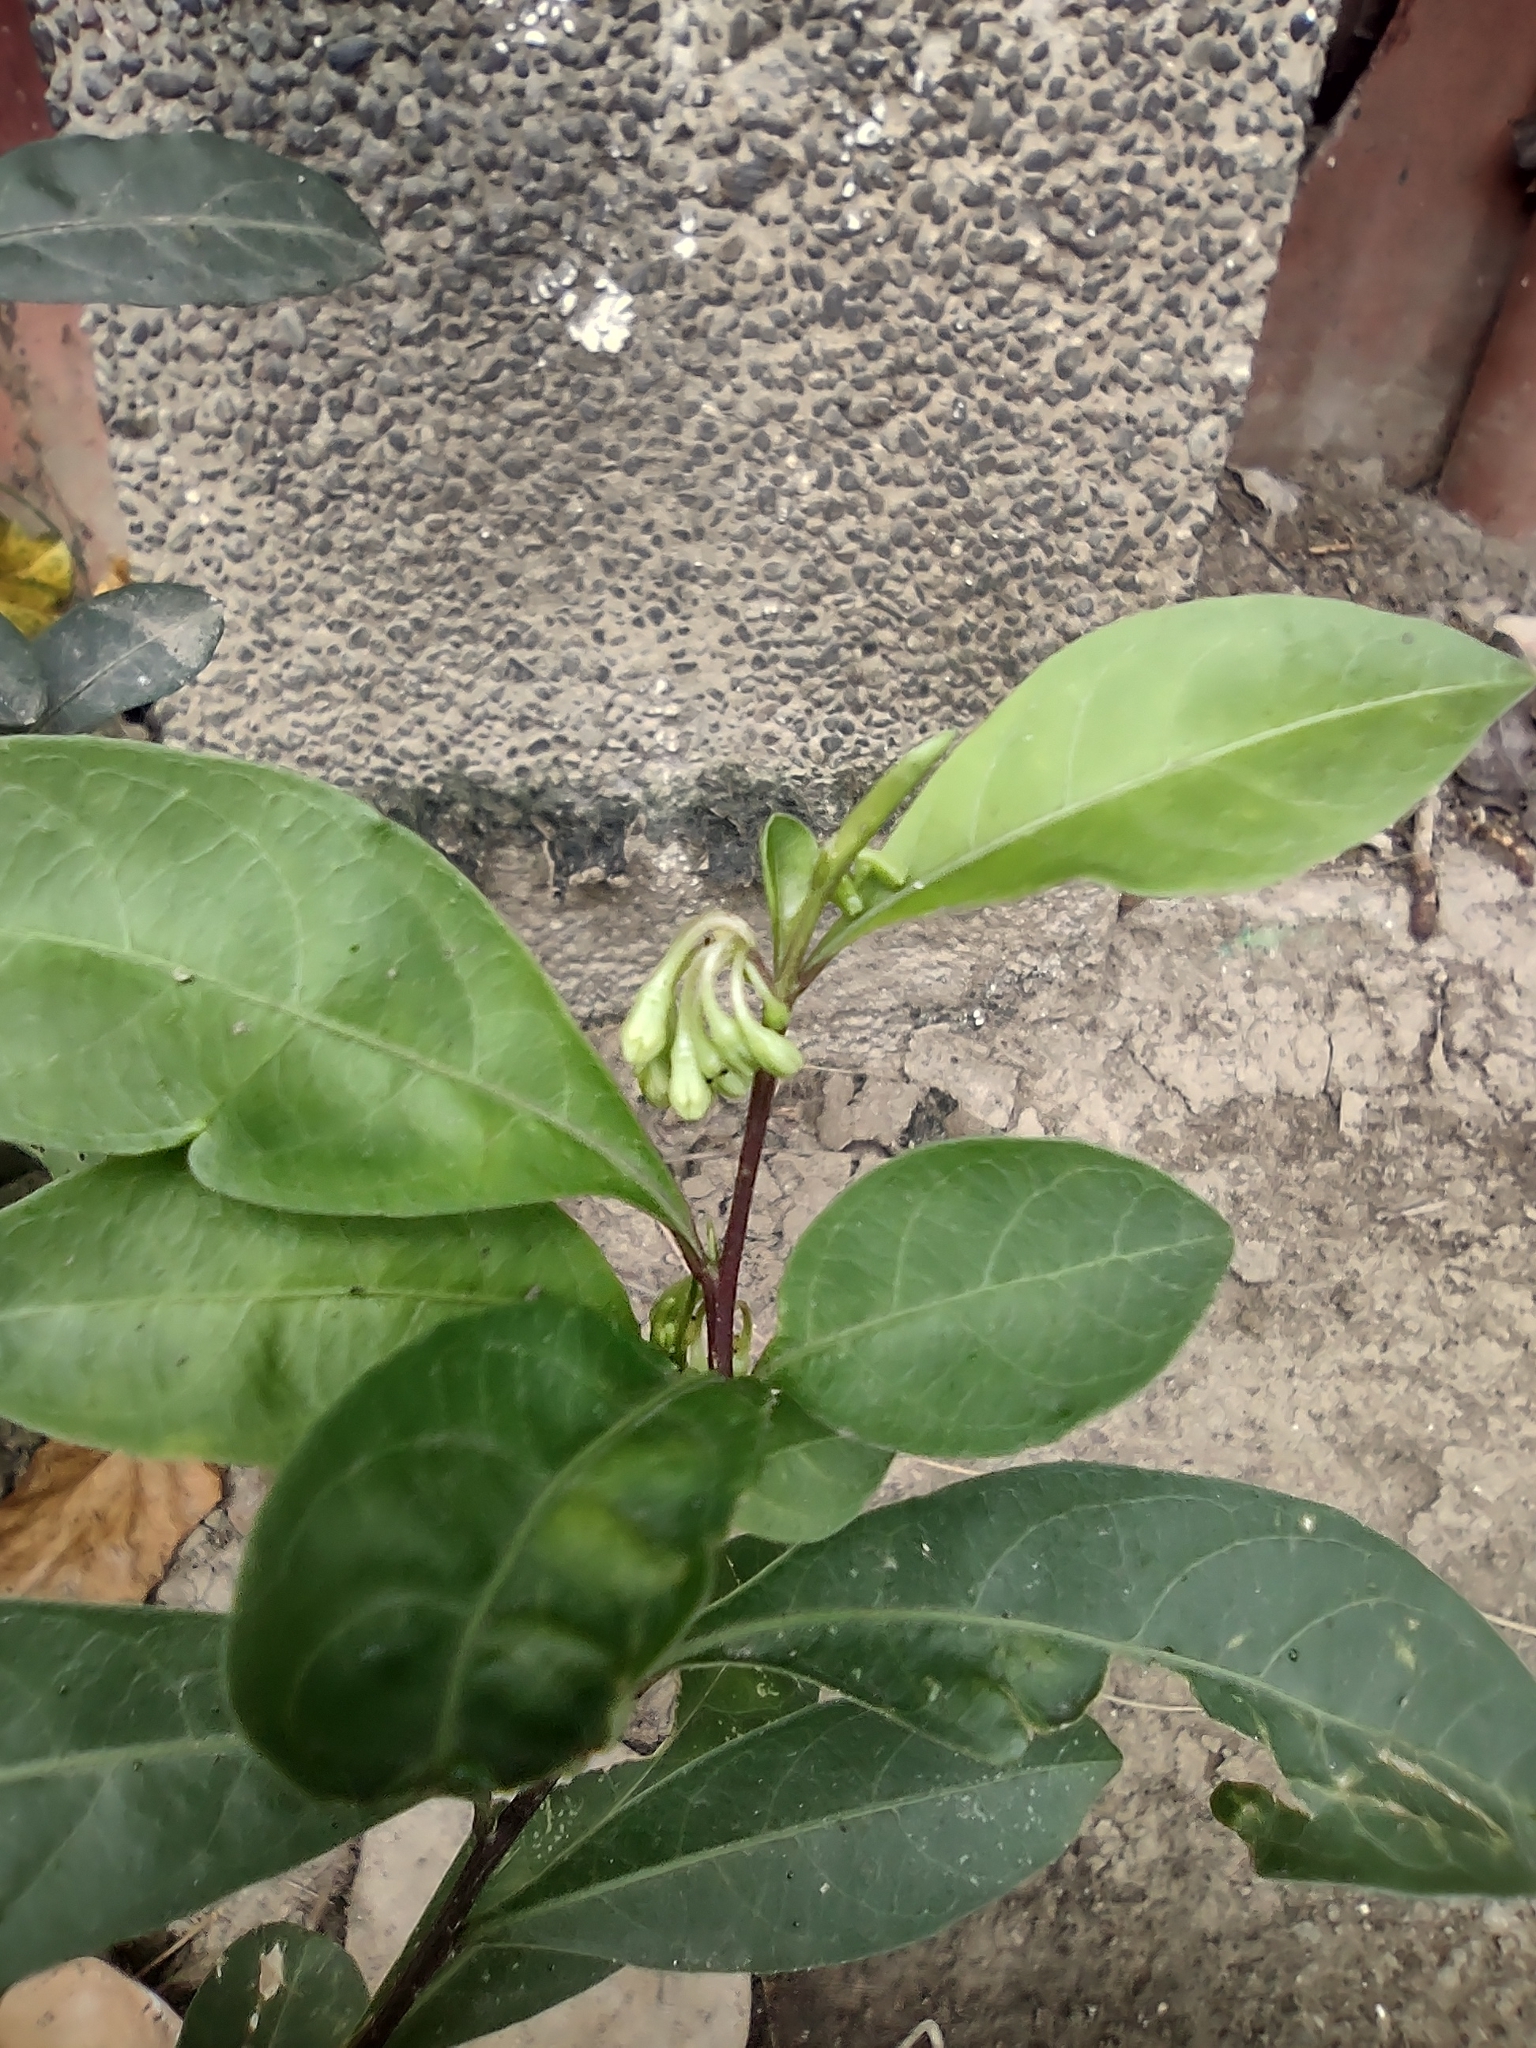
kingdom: Plantae
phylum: Tracheophyta
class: Magnoliopsida
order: Solanales
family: Solanaceae
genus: Solanum
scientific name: Solanum diphyllum
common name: Twoleaf nightshade
